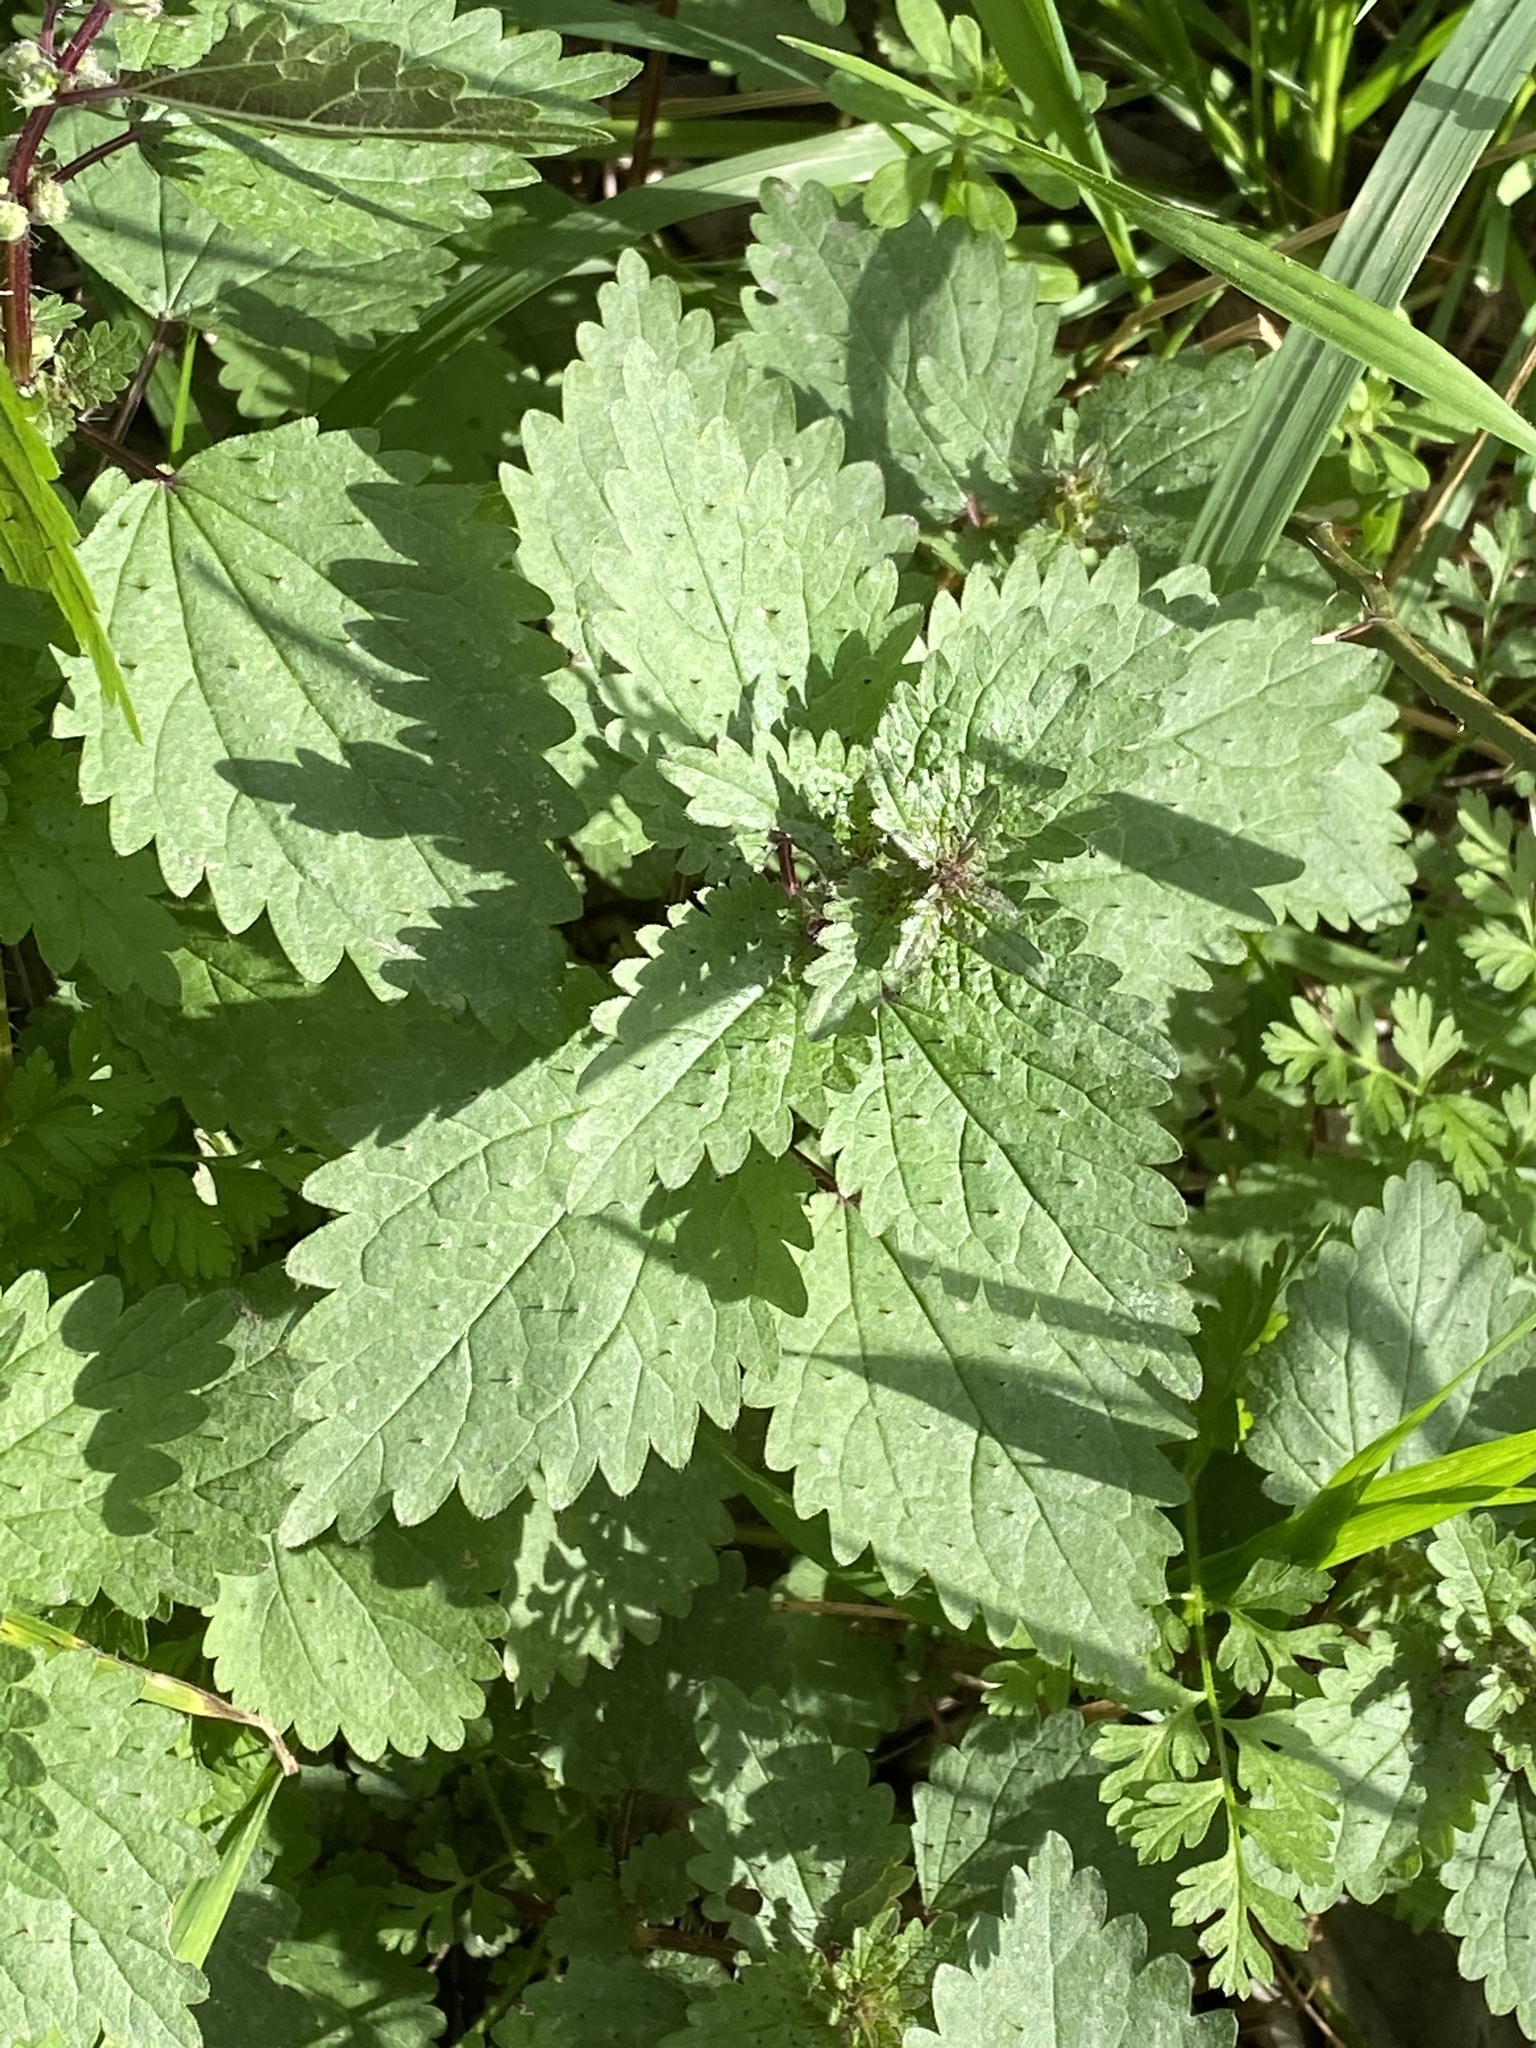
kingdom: Plantae
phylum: Tracheophyta
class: Magnoliopsida
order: Rosales
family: Urticaceae
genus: Urtica
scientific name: Urtica chamaedryoides
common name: Heart-leaf nettle
